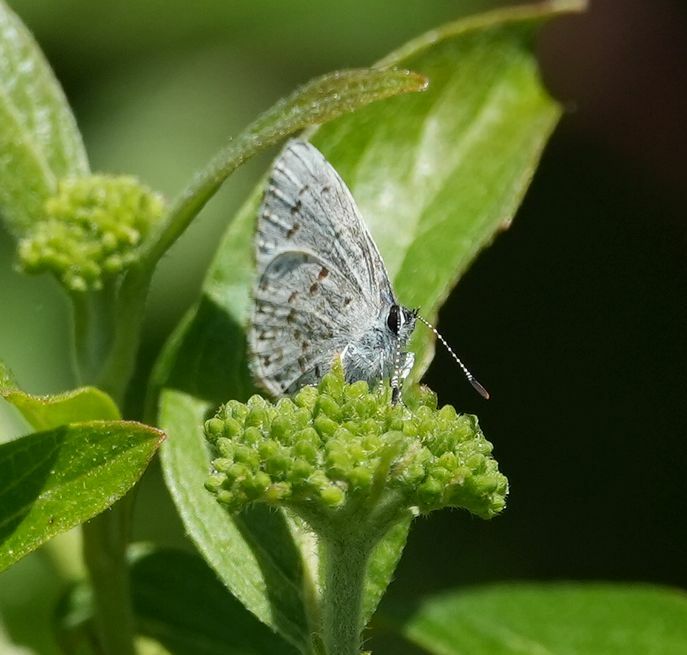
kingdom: Animalia
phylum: Arthropoda
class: Insecta
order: Lepidoptera
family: Lycaenidae
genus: Celastrina
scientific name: Celastrina lucia
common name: Lucia azure
